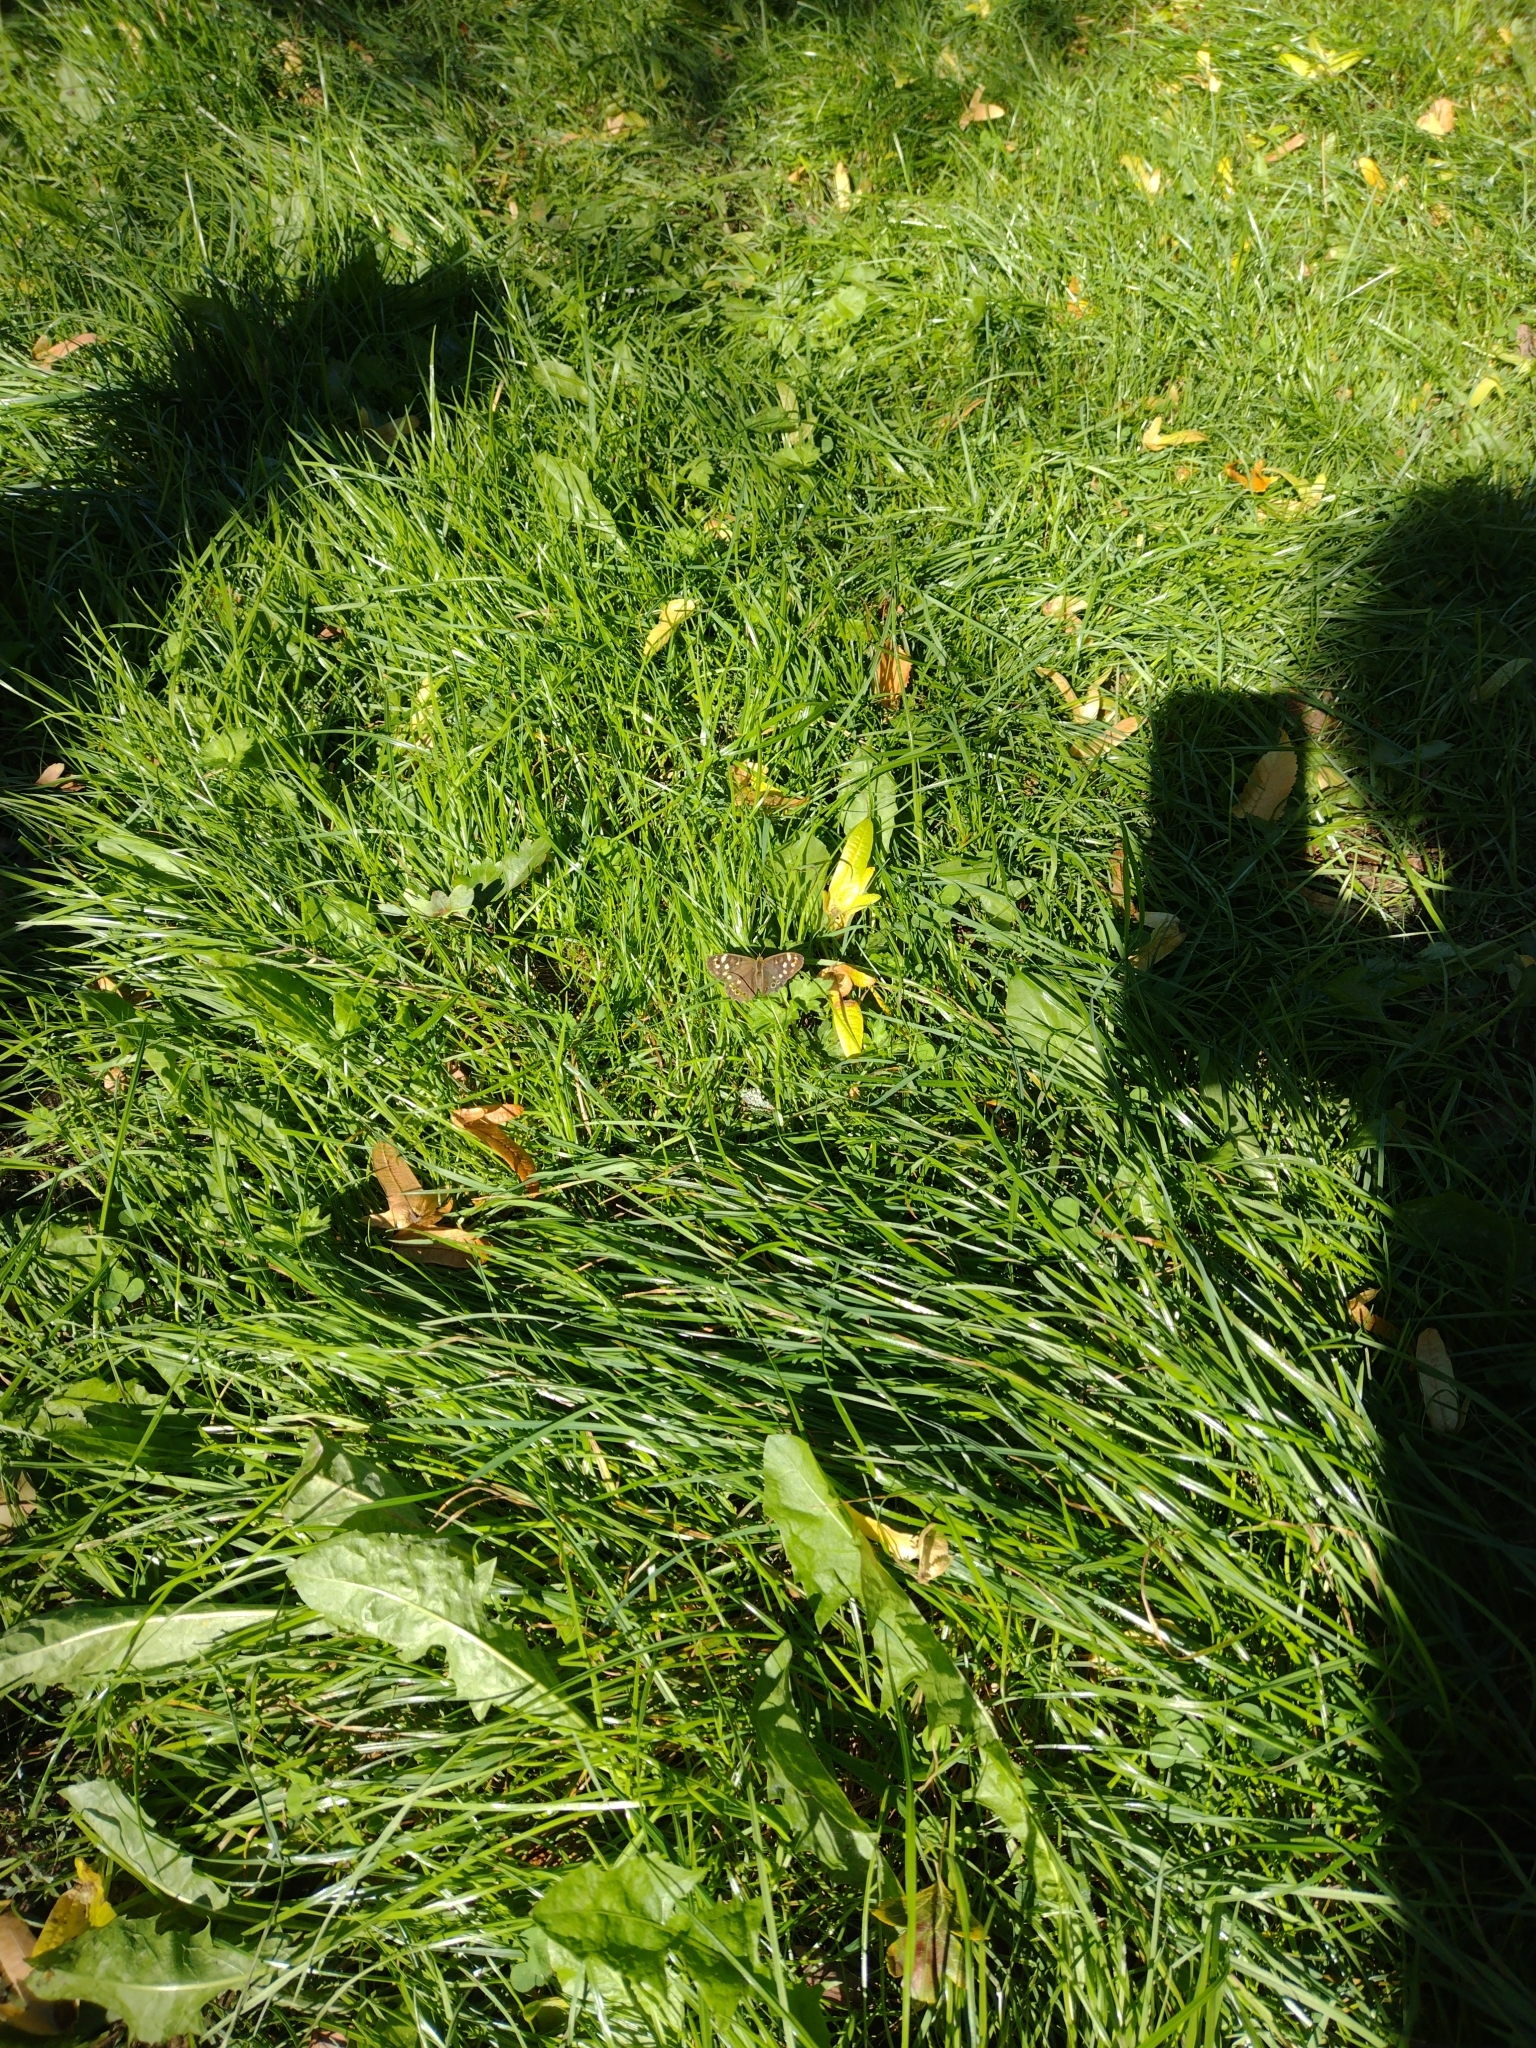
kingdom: Animalia
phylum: Arthropoda
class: Insecta
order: Lepidoptera
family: Nymphalidae
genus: Pararge
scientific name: Pararge aegeria
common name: Speckled wood
